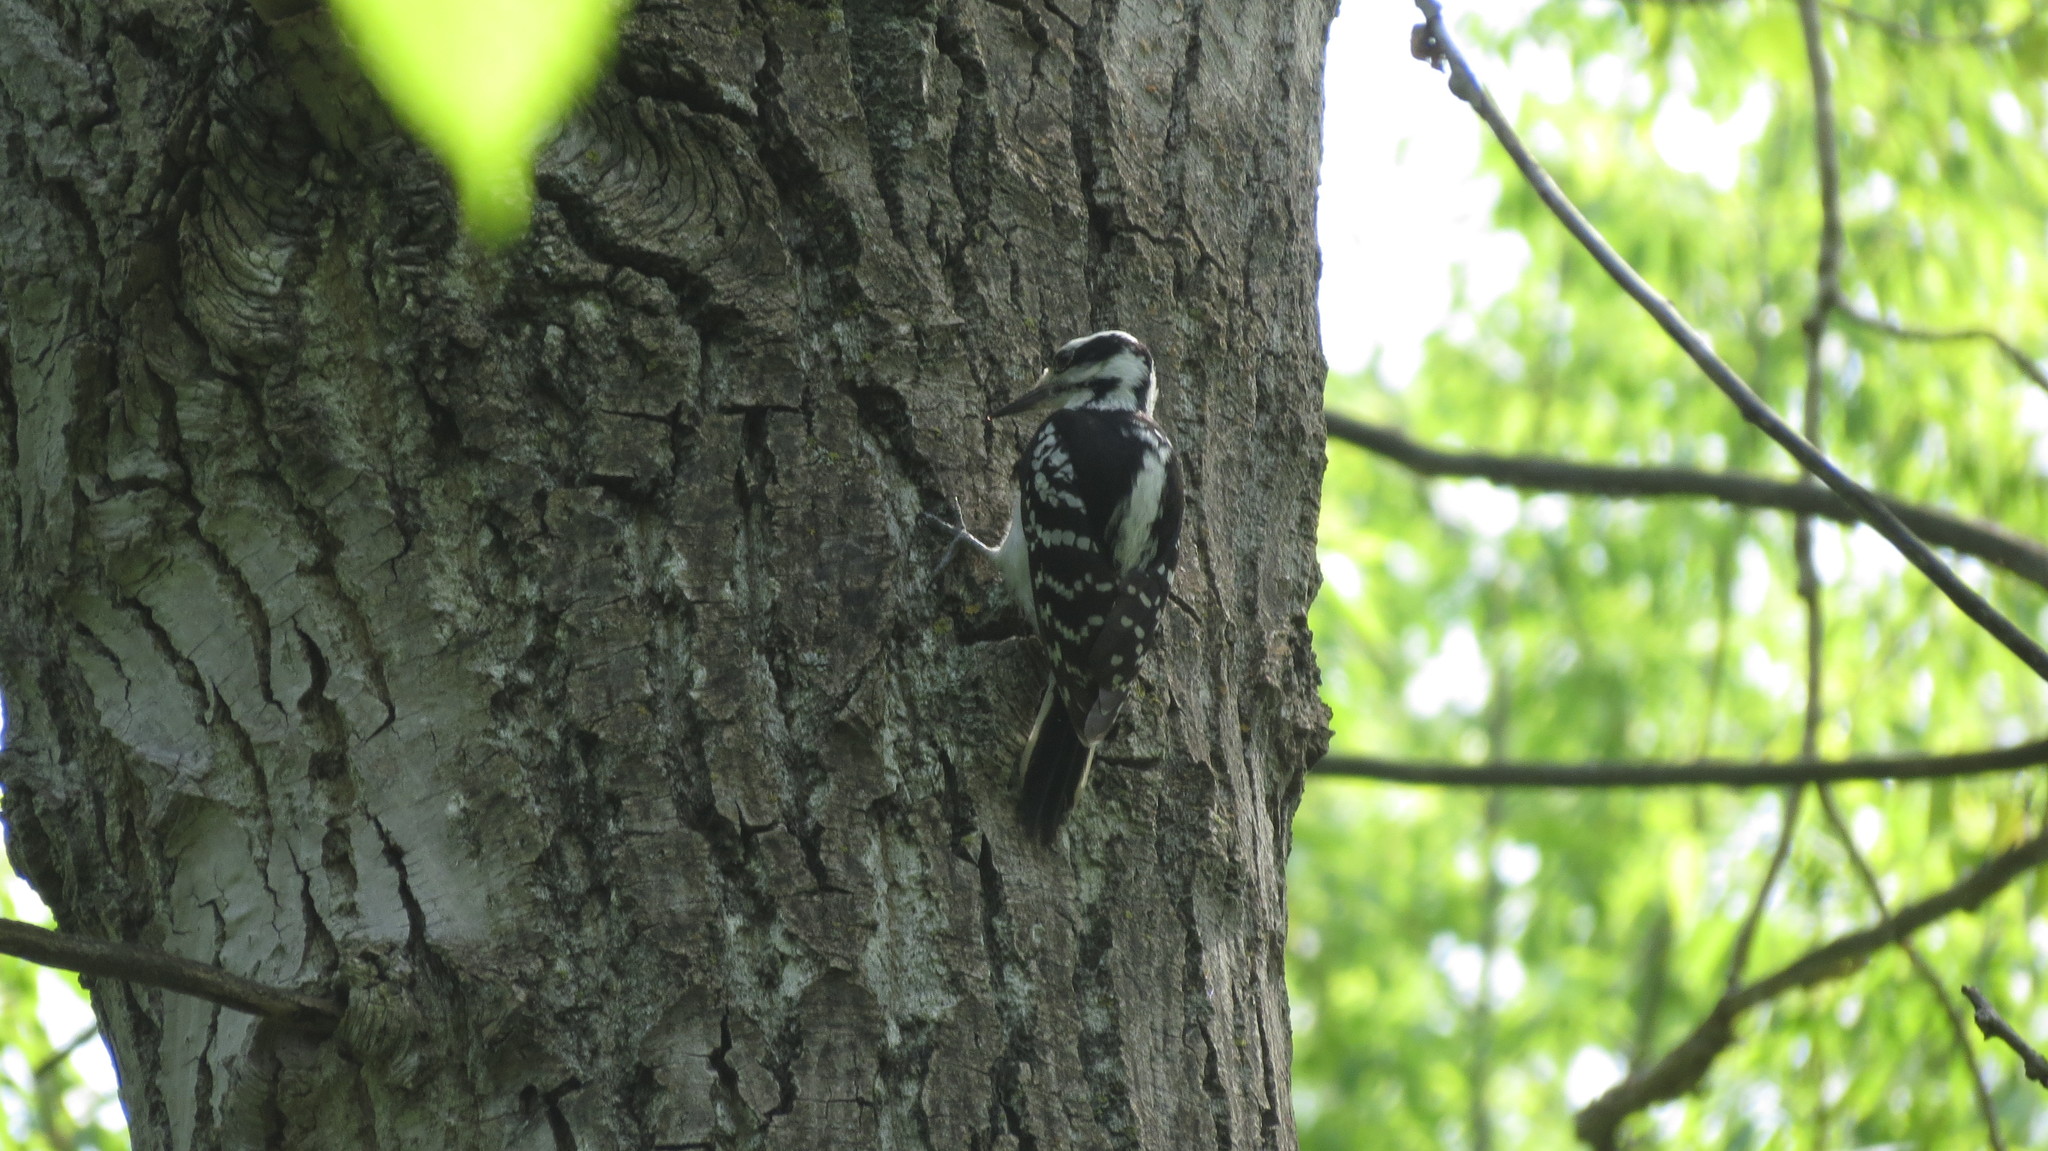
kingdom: Animalia
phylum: Chordata
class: Aves
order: Piciformes
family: Picidae
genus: Leuconotopicus
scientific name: Leuconotopicus villosus
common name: Hairy woodpecker
